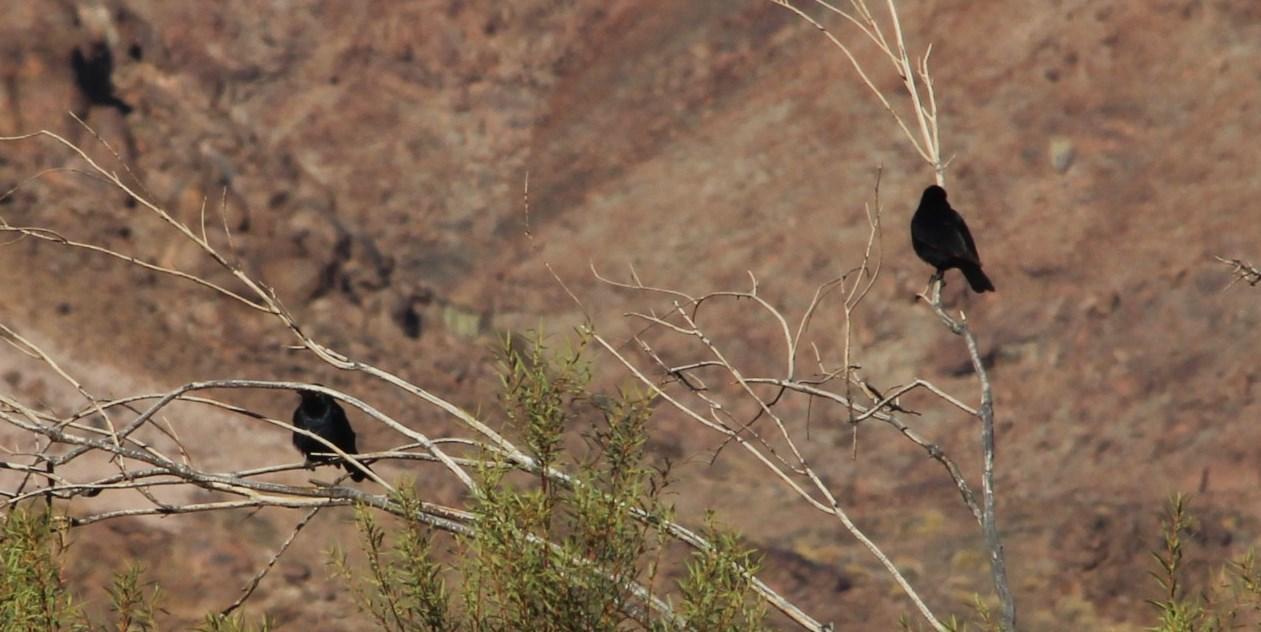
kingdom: Animalia
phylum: Chordata
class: Aves
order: Passeriformes
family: Sturnidae
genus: Onychognathus
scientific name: Onychognathus nabouroup
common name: Pale-winged starling
